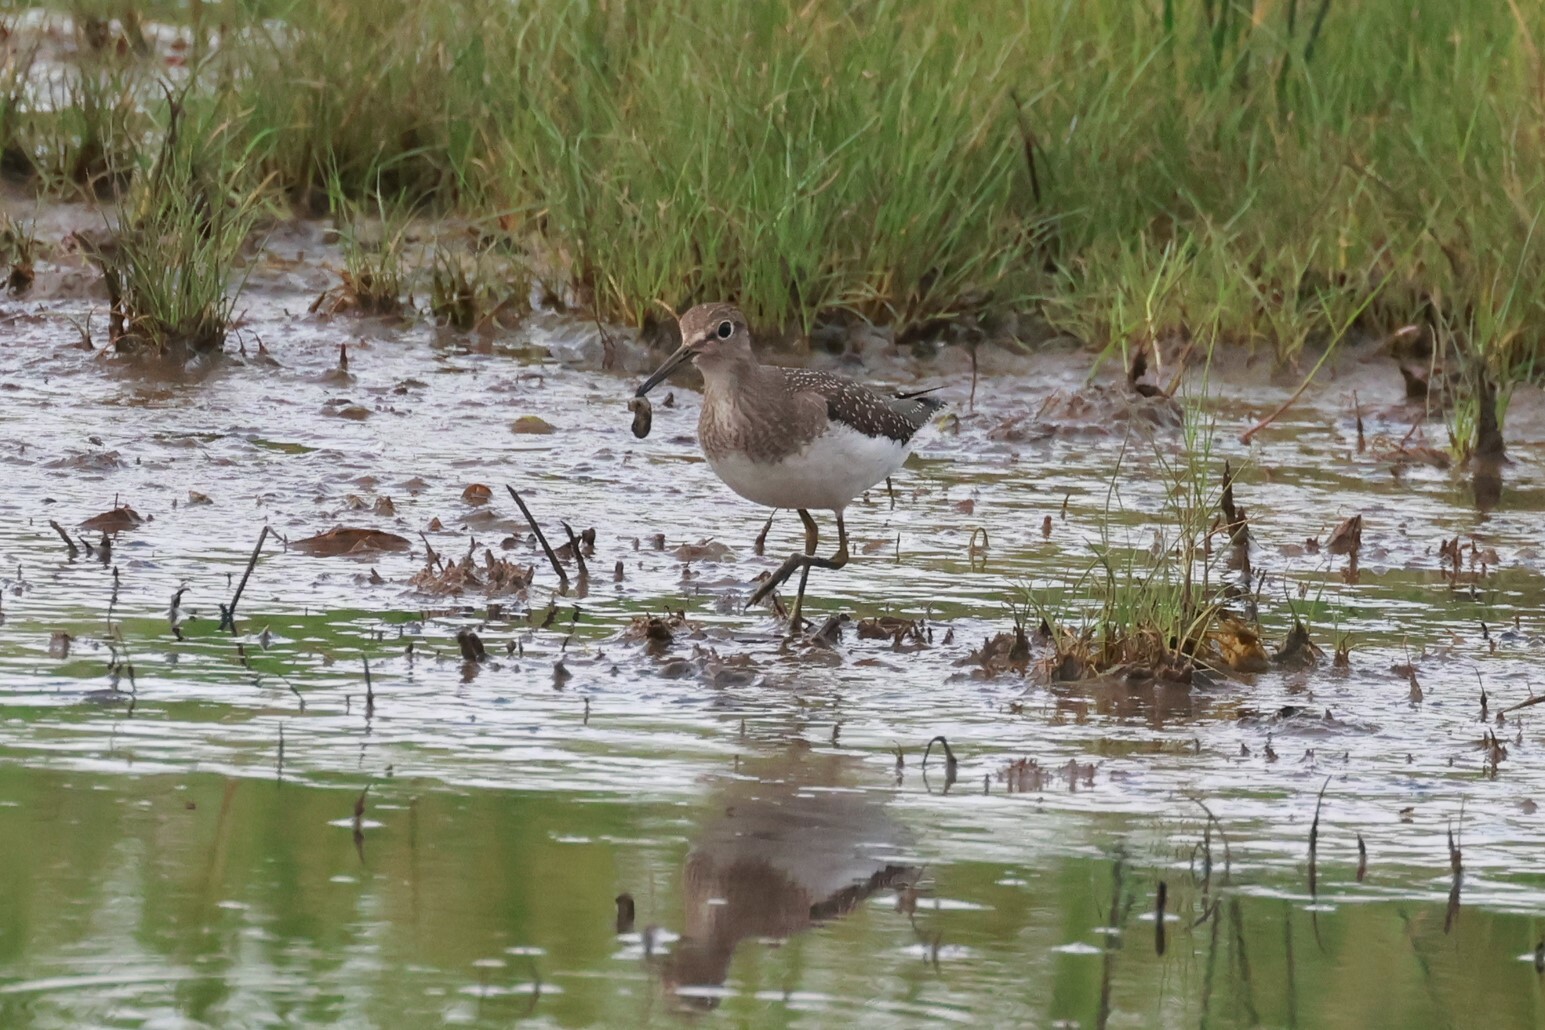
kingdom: Animalia
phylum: Chordata
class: Aves
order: Charadriiformes
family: Scolopacidae
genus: Tringa
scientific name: Tringa solitaria
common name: Solitary sandpiper
